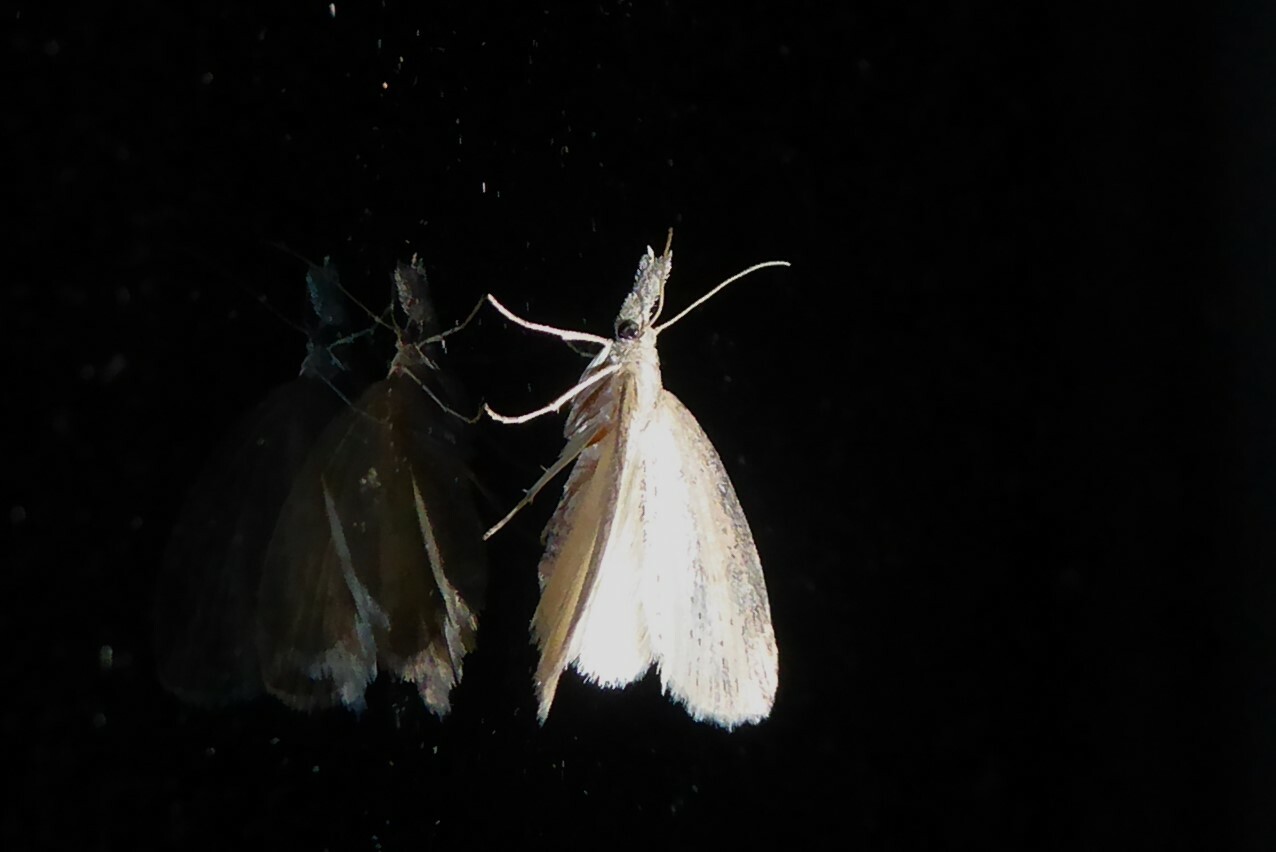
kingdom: Animalia
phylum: Arthropoda
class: Insecta
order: Lepidoptera
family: Geometridae
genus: Microdes
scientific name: Microdes epicryptis
